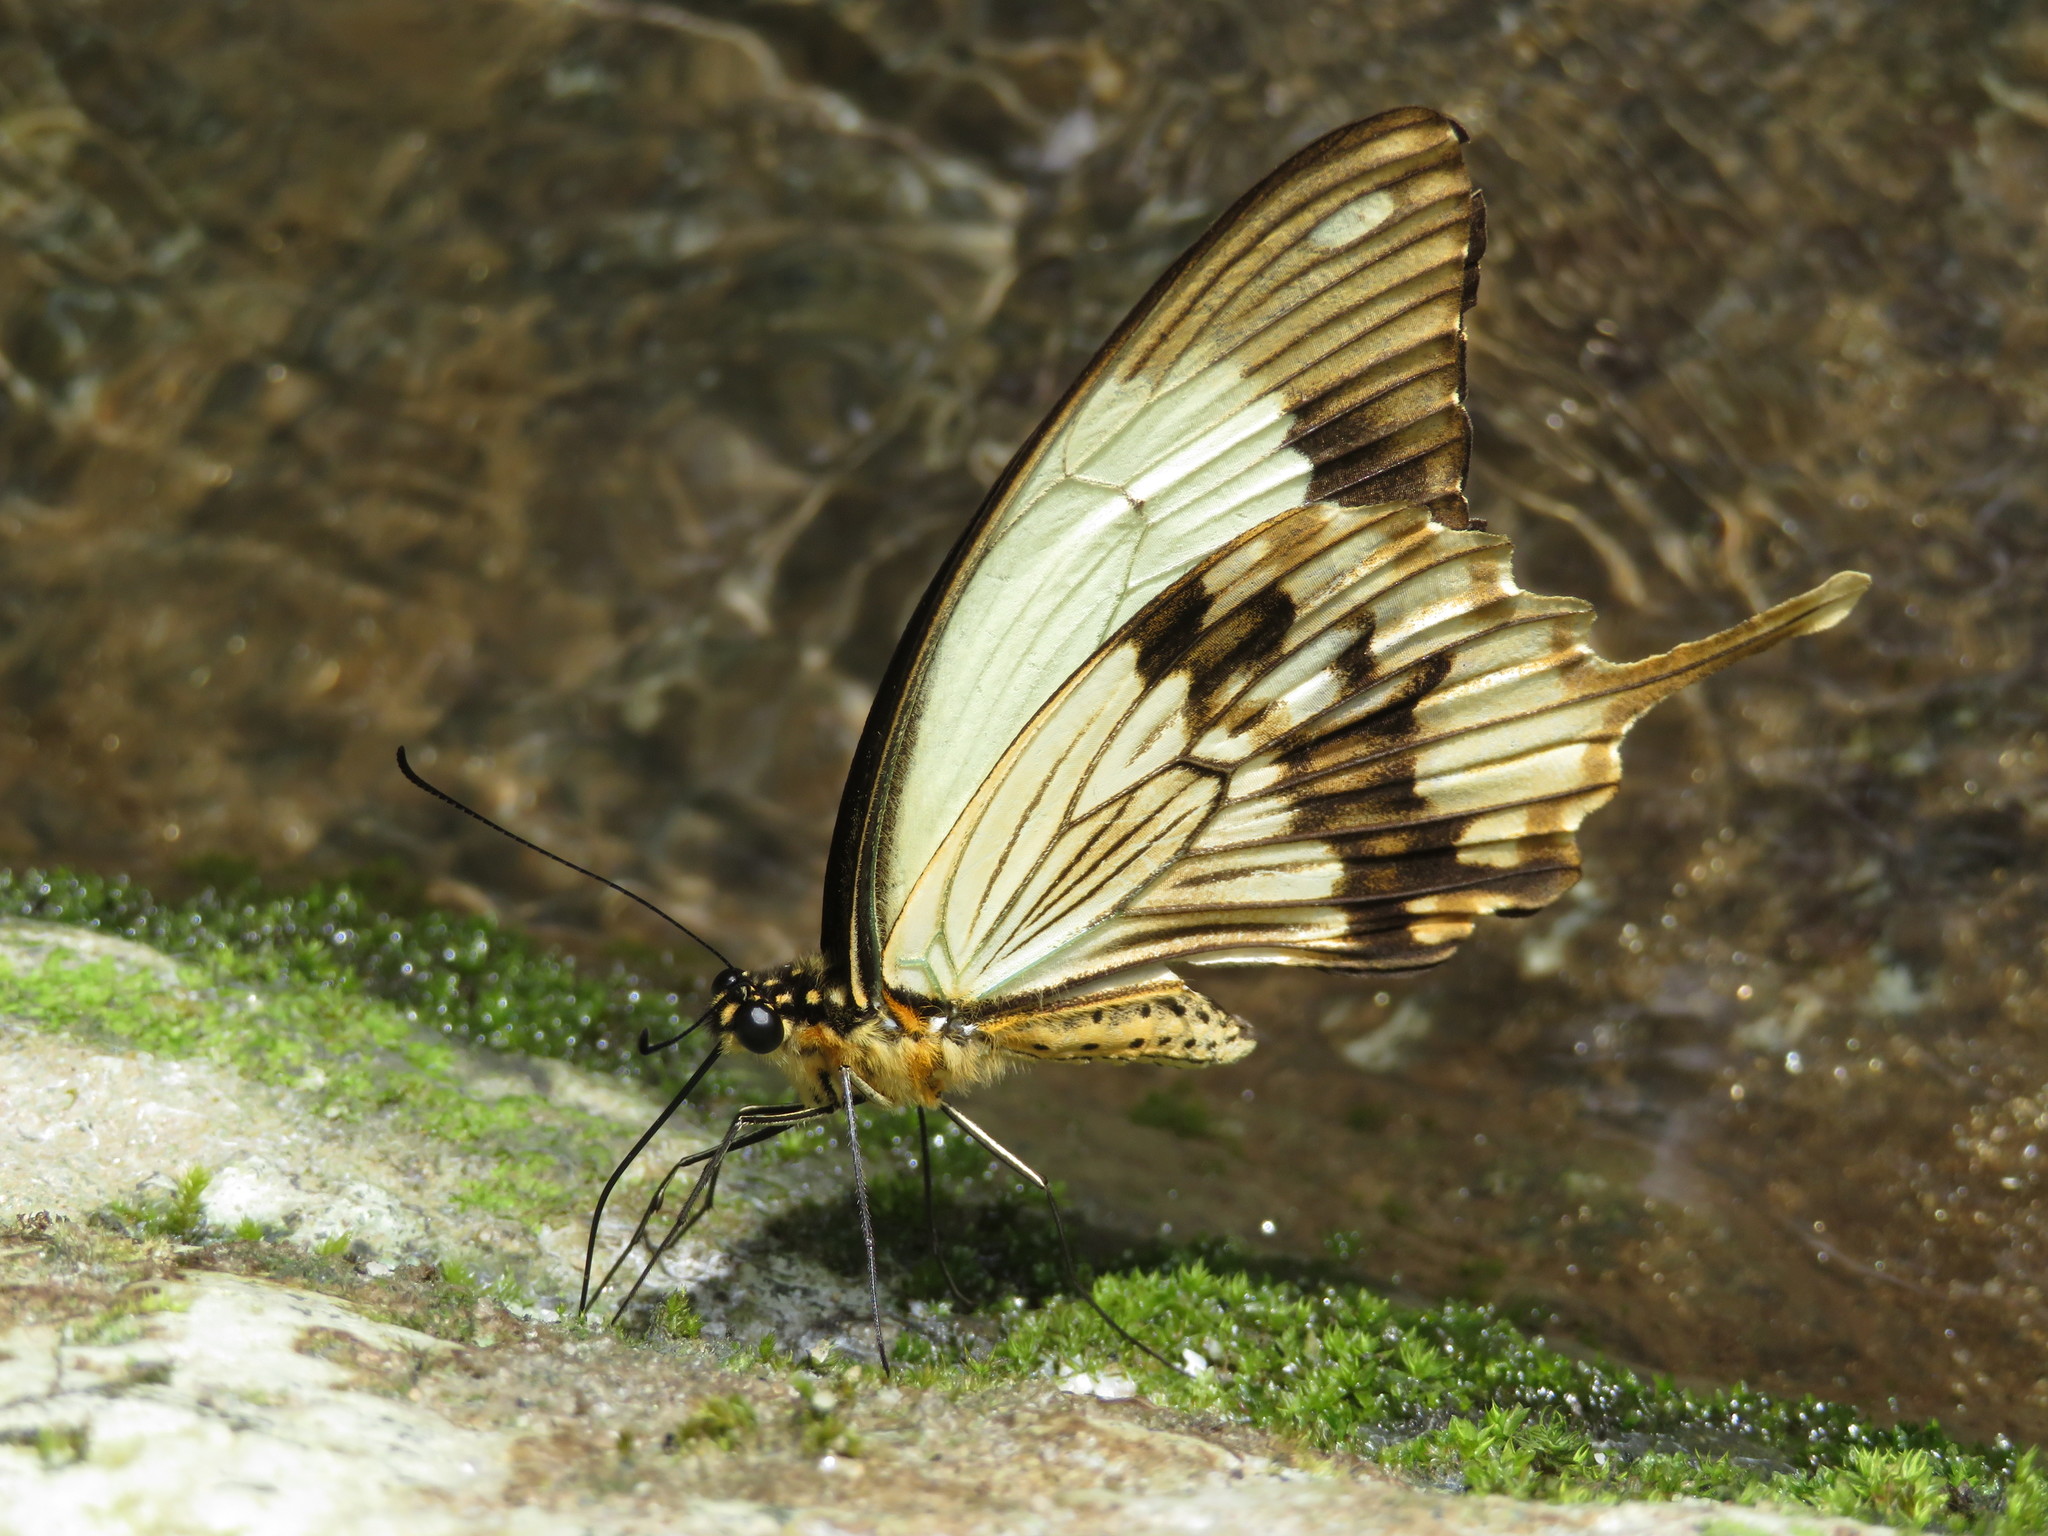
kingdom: Animalia
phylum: Arthropoda
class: Insecta
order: Lepidoptera
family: Papilionidae
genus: Papilio
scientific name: Papilio dardanus
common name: Flying handkerchief
